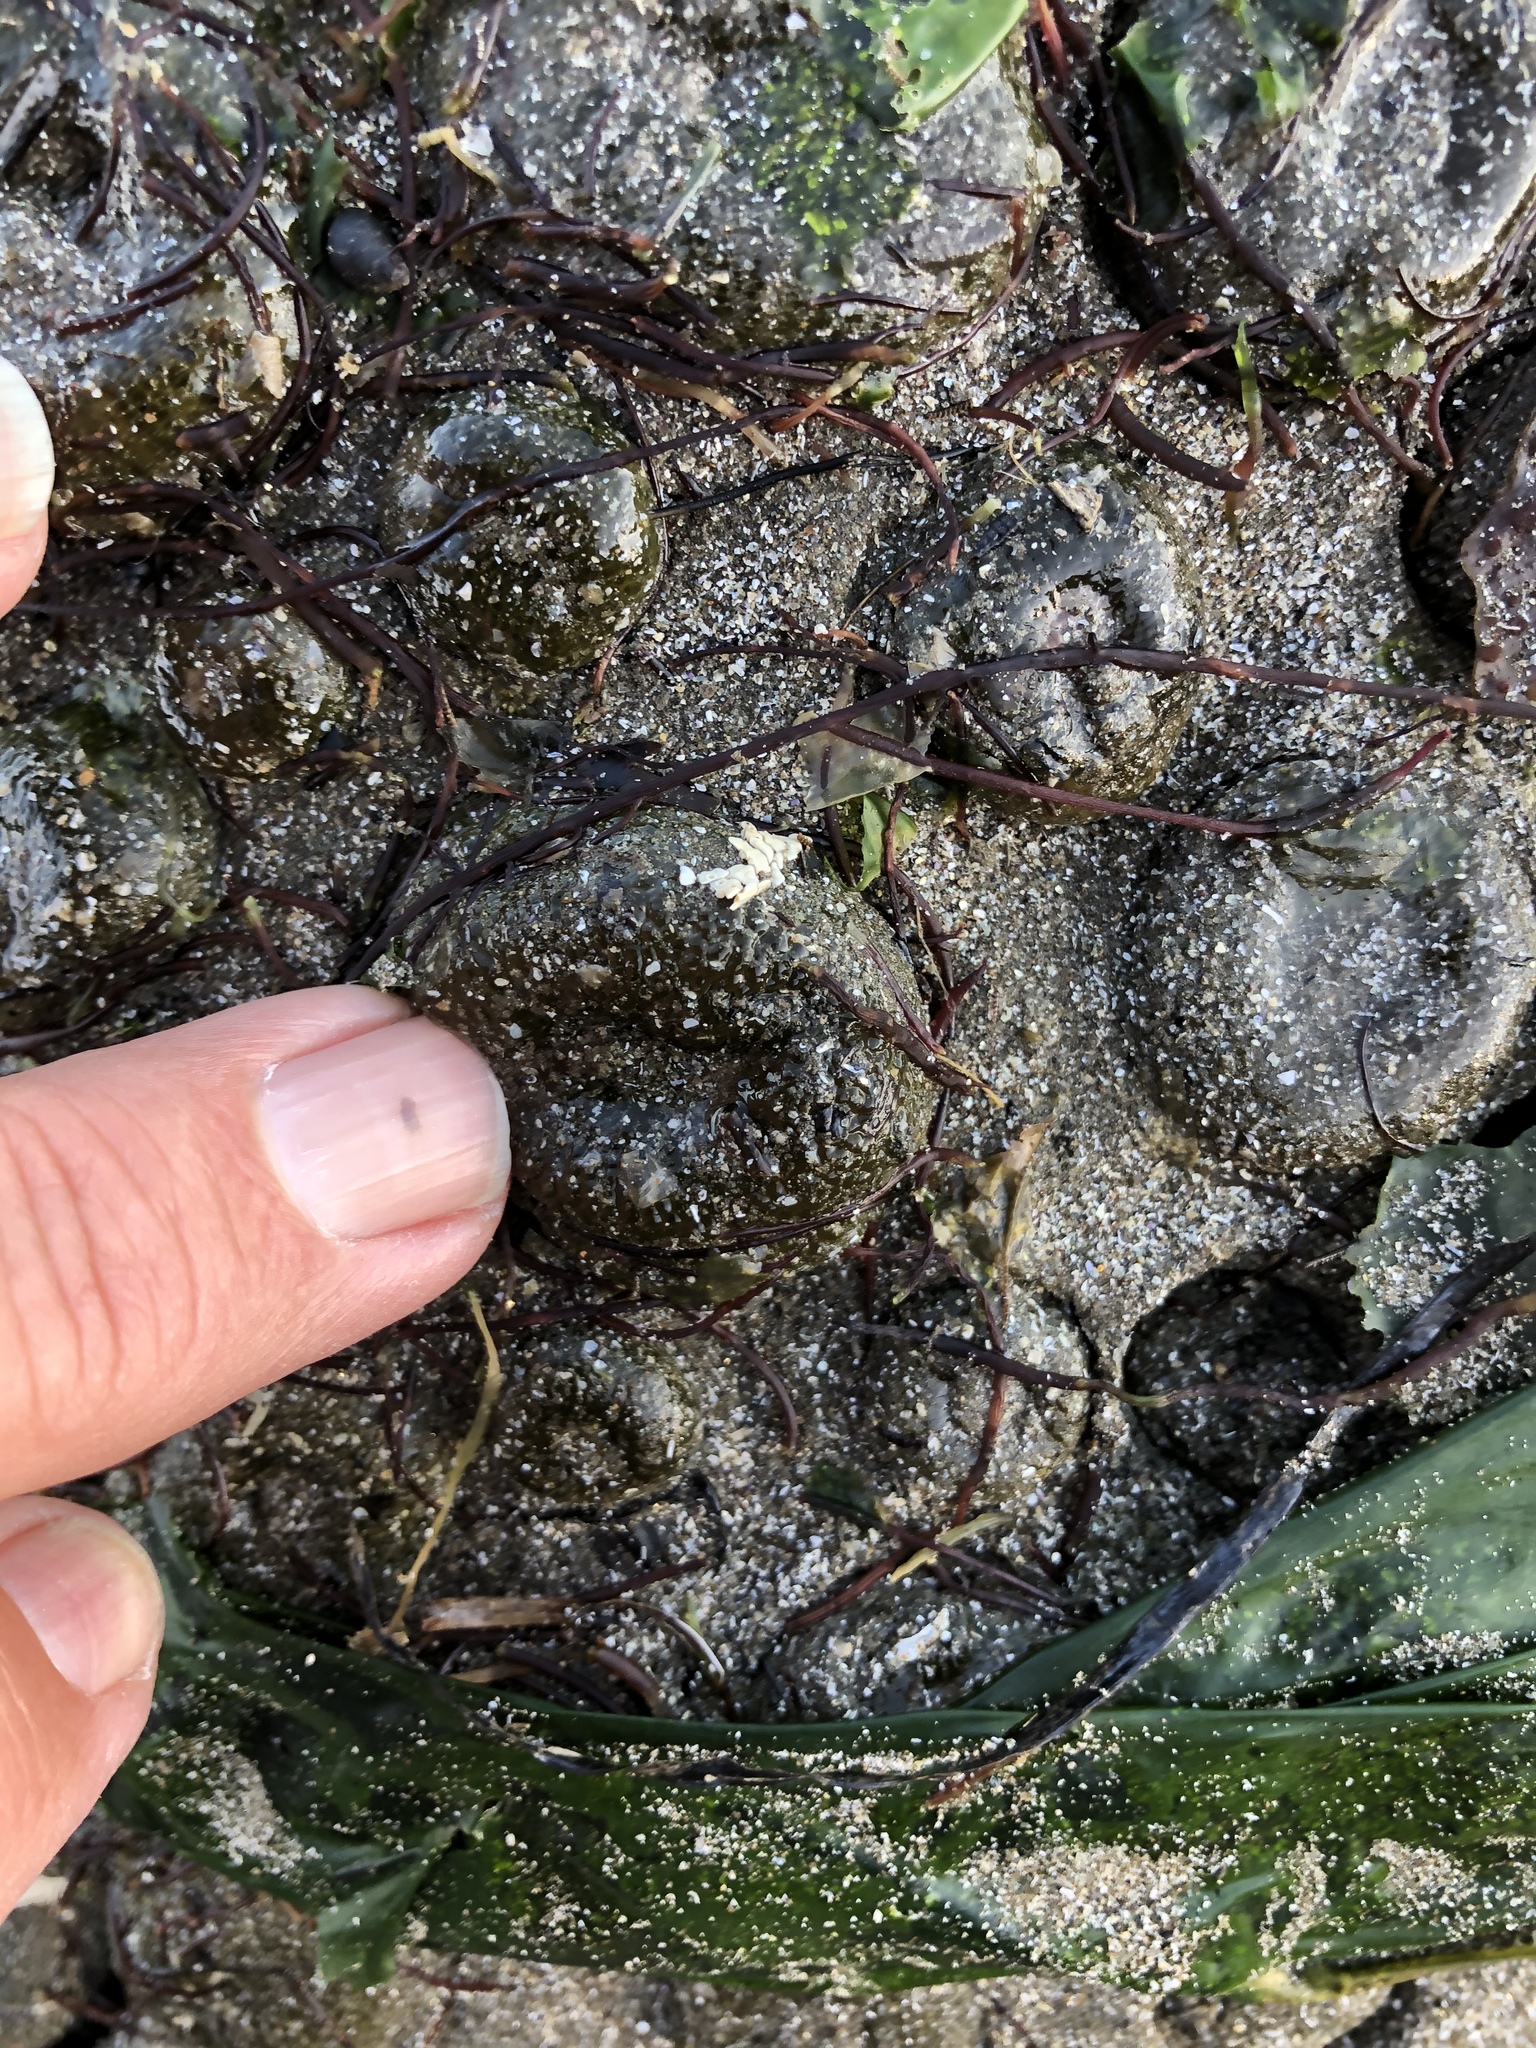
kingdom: Animalia
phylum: Cnidaria
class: Anthozoa
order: Actiniaria
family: Actiniidae
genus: Anthopleura
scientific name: Anthopleura elegantissima
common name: Clonal anemone
